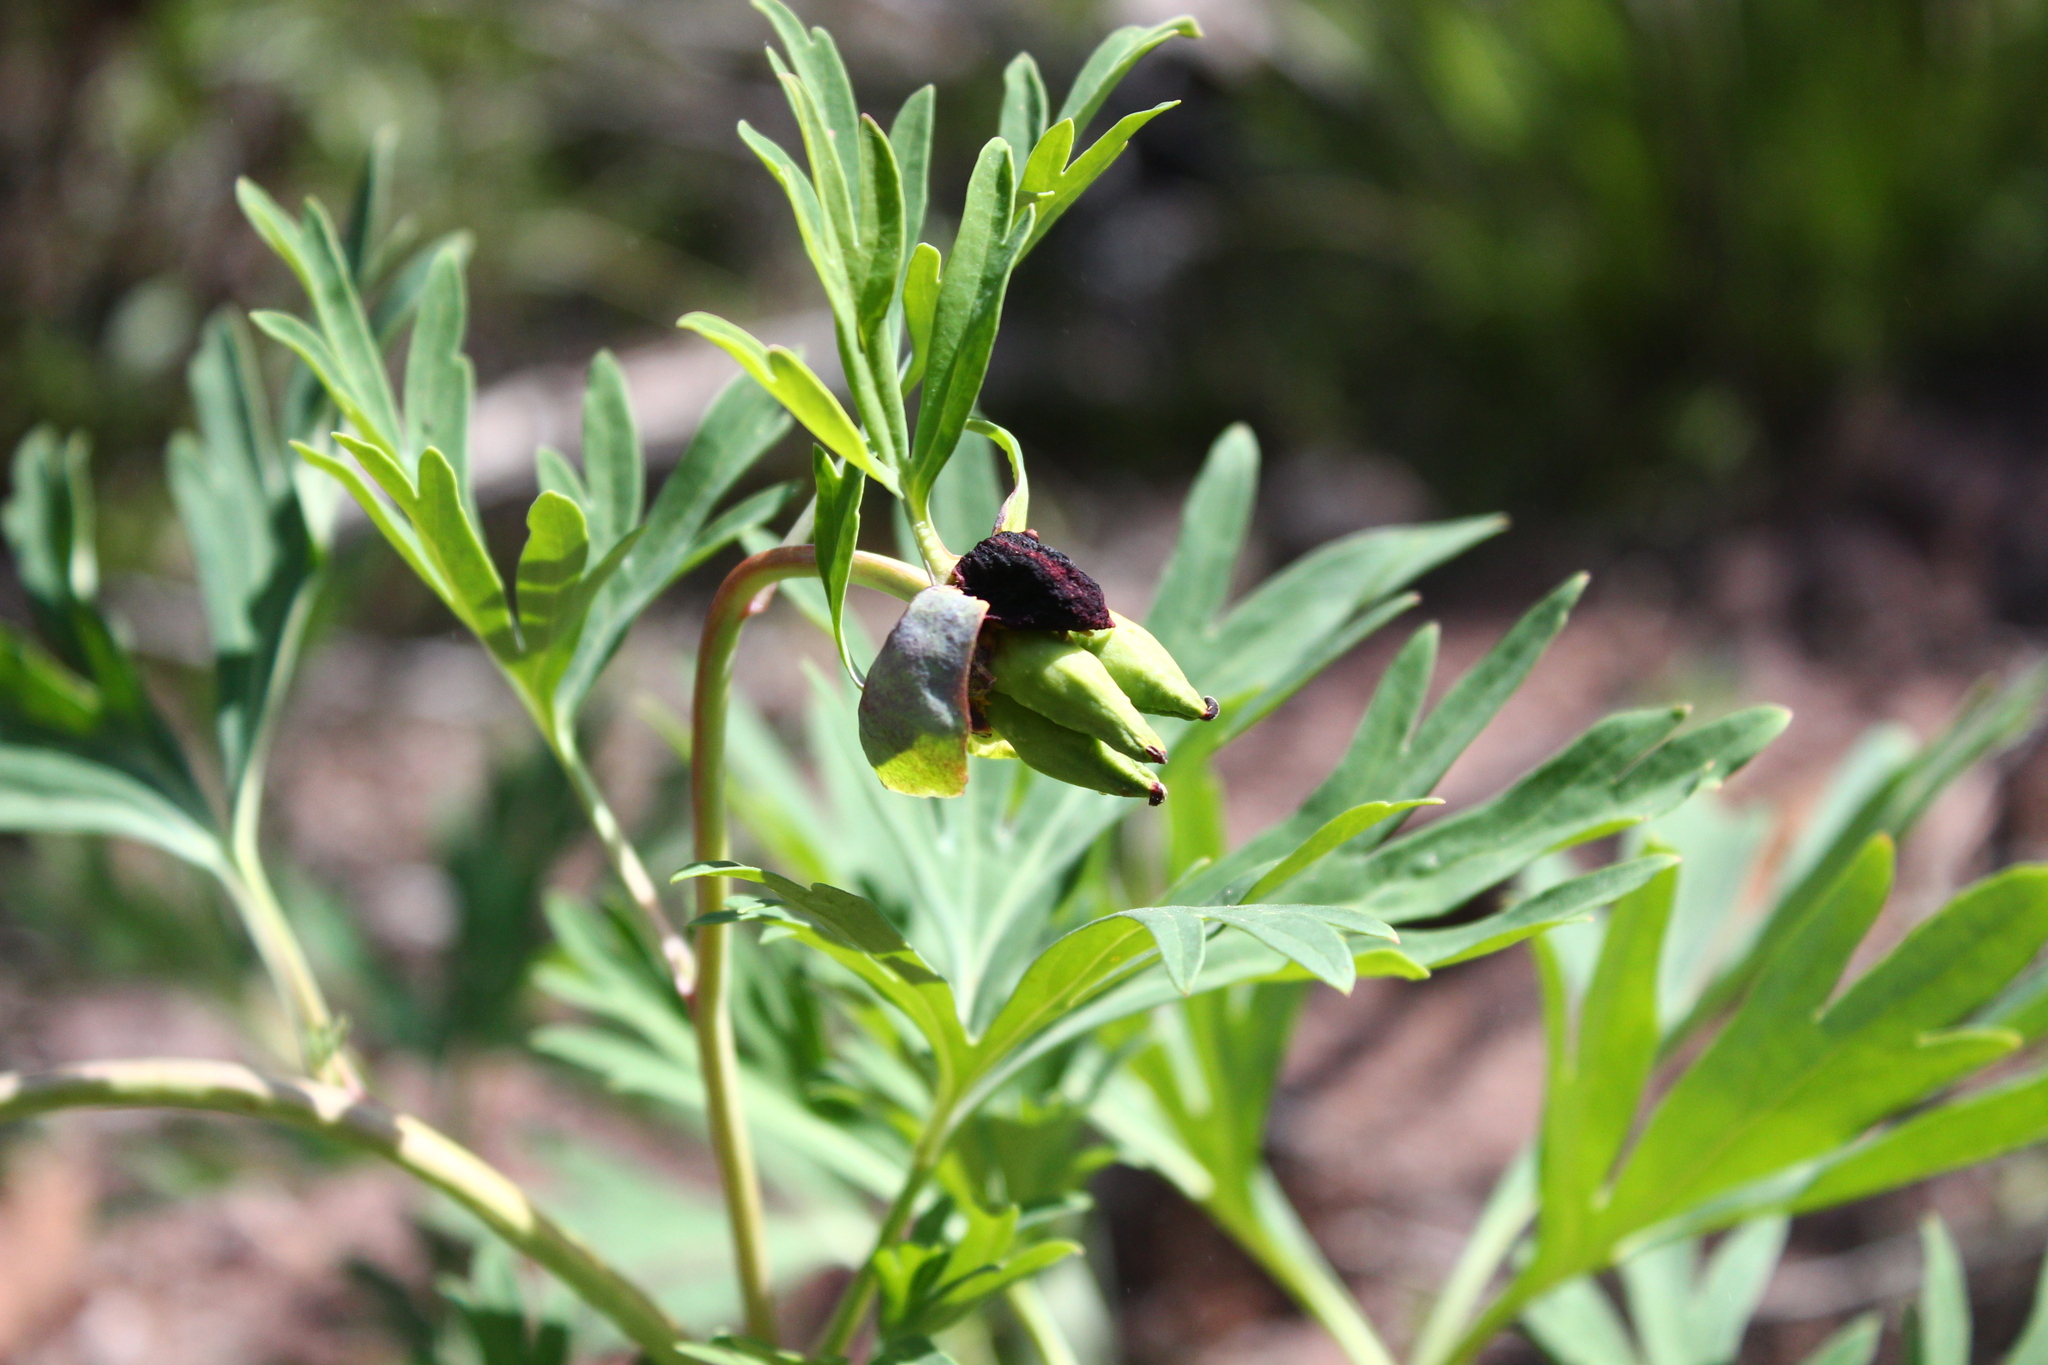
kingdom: Plantae
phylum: Tracheophyta
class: Magnoliopsida
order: Saxifragales
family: Paeoniaceae
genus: Paeonia
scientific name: Paeonia californica
